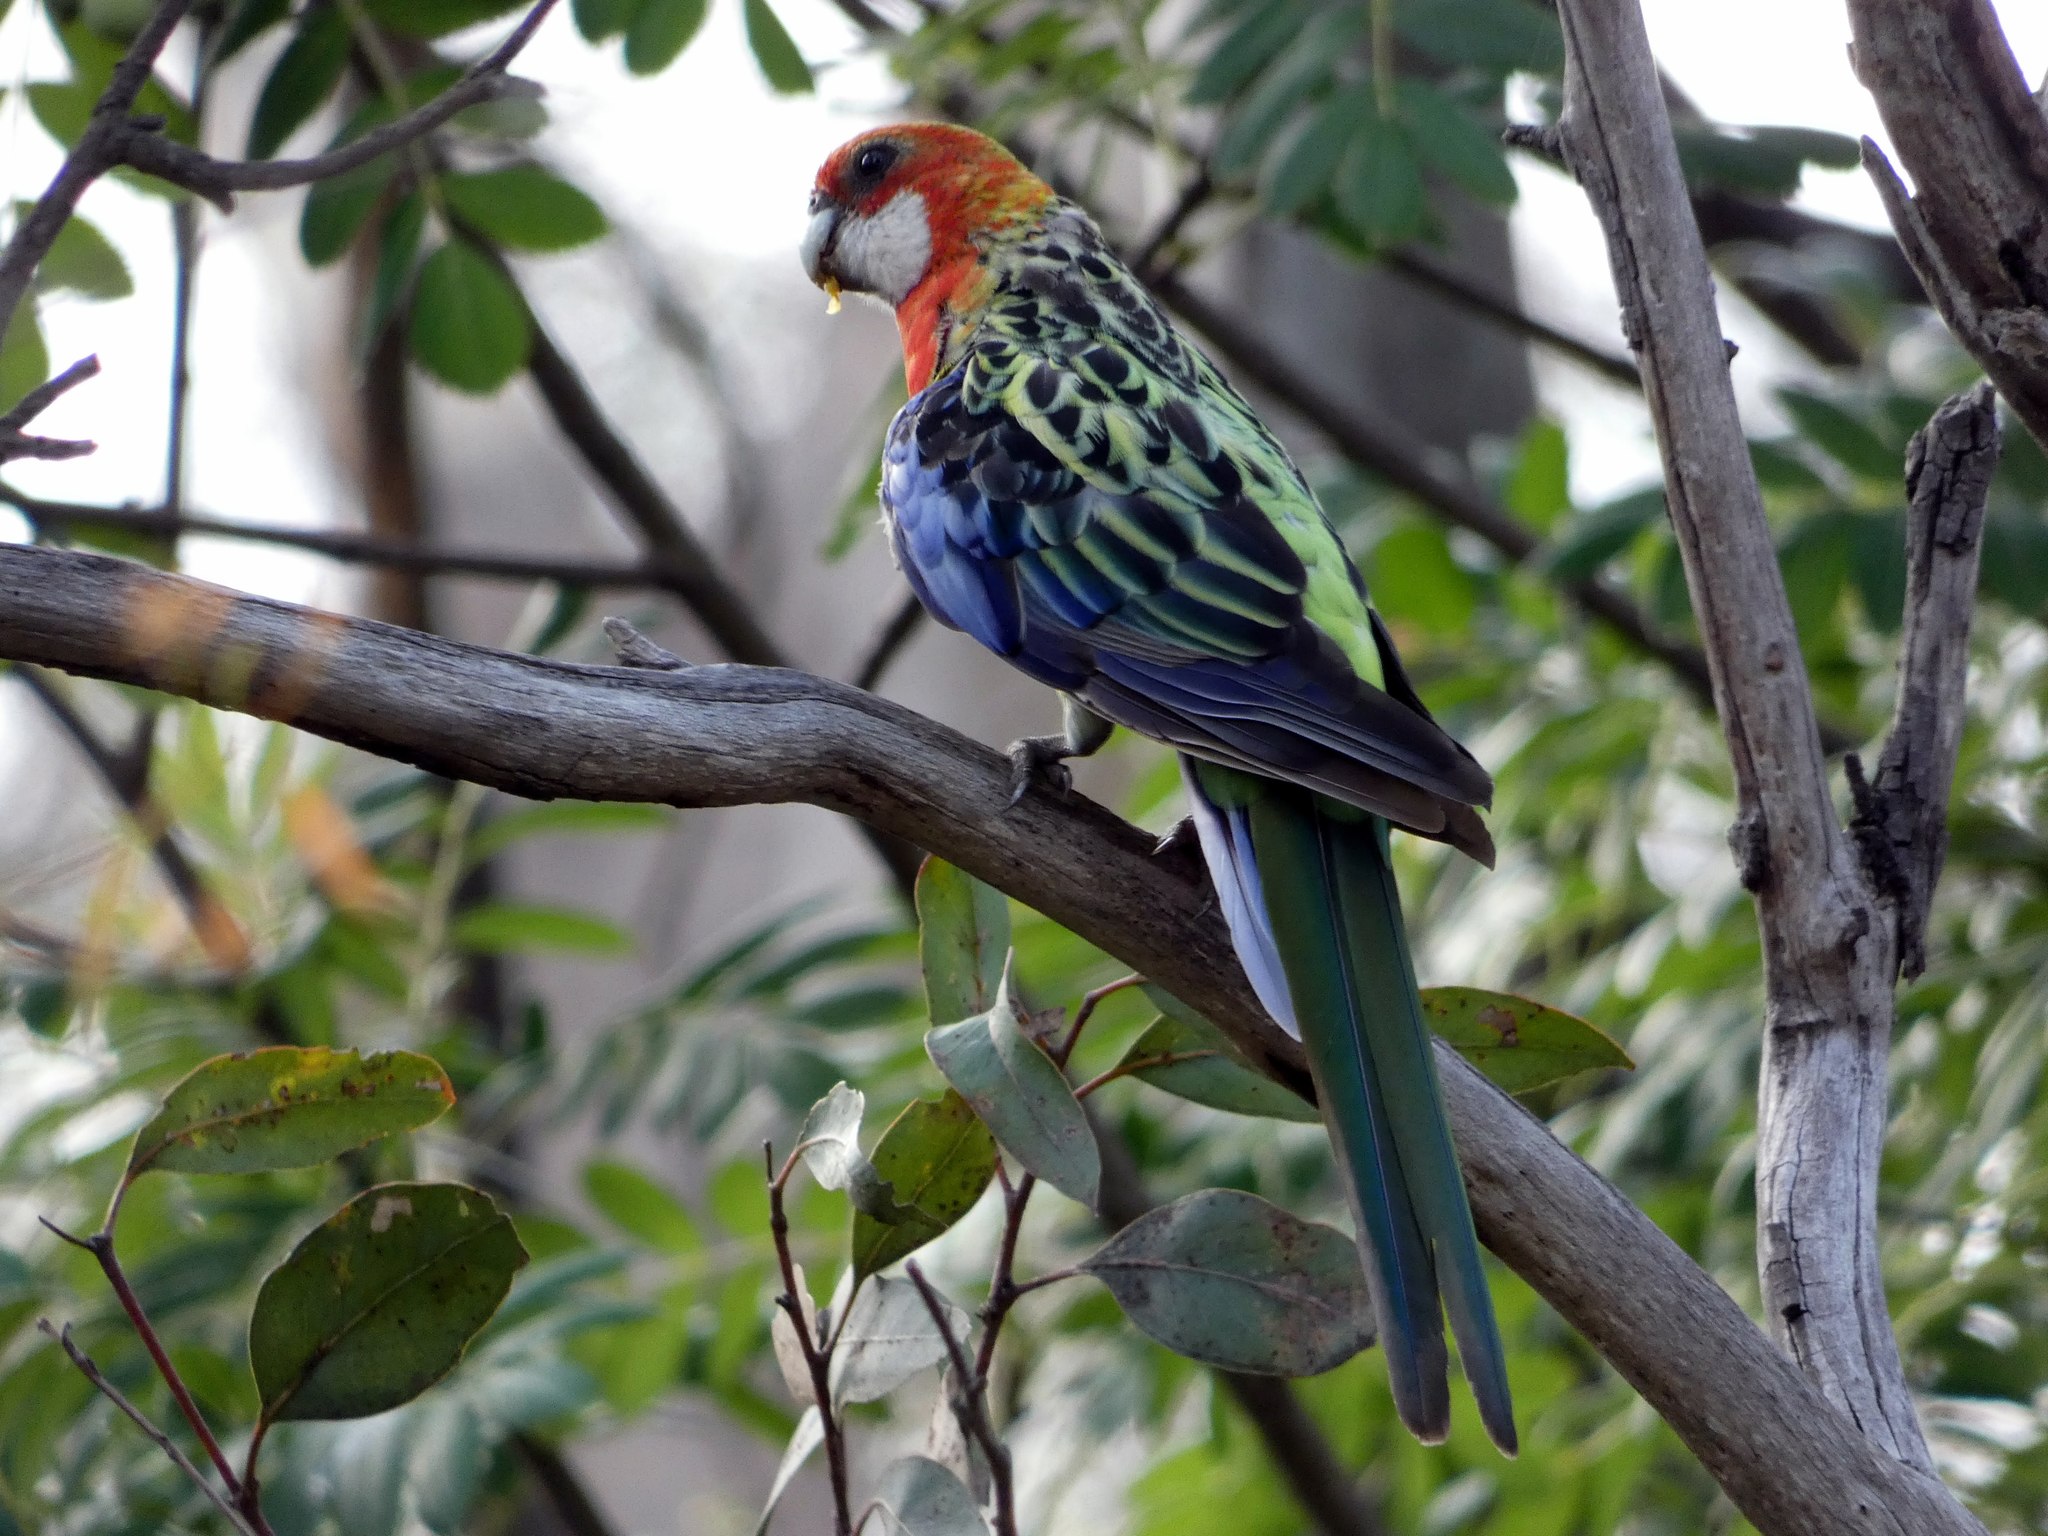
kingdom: Animalia
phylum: Chordata
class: Aves
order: Psittaciformes
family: Psittacidae
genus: Platycercus
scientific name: Platycercus eximius
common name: Eastern rosella
